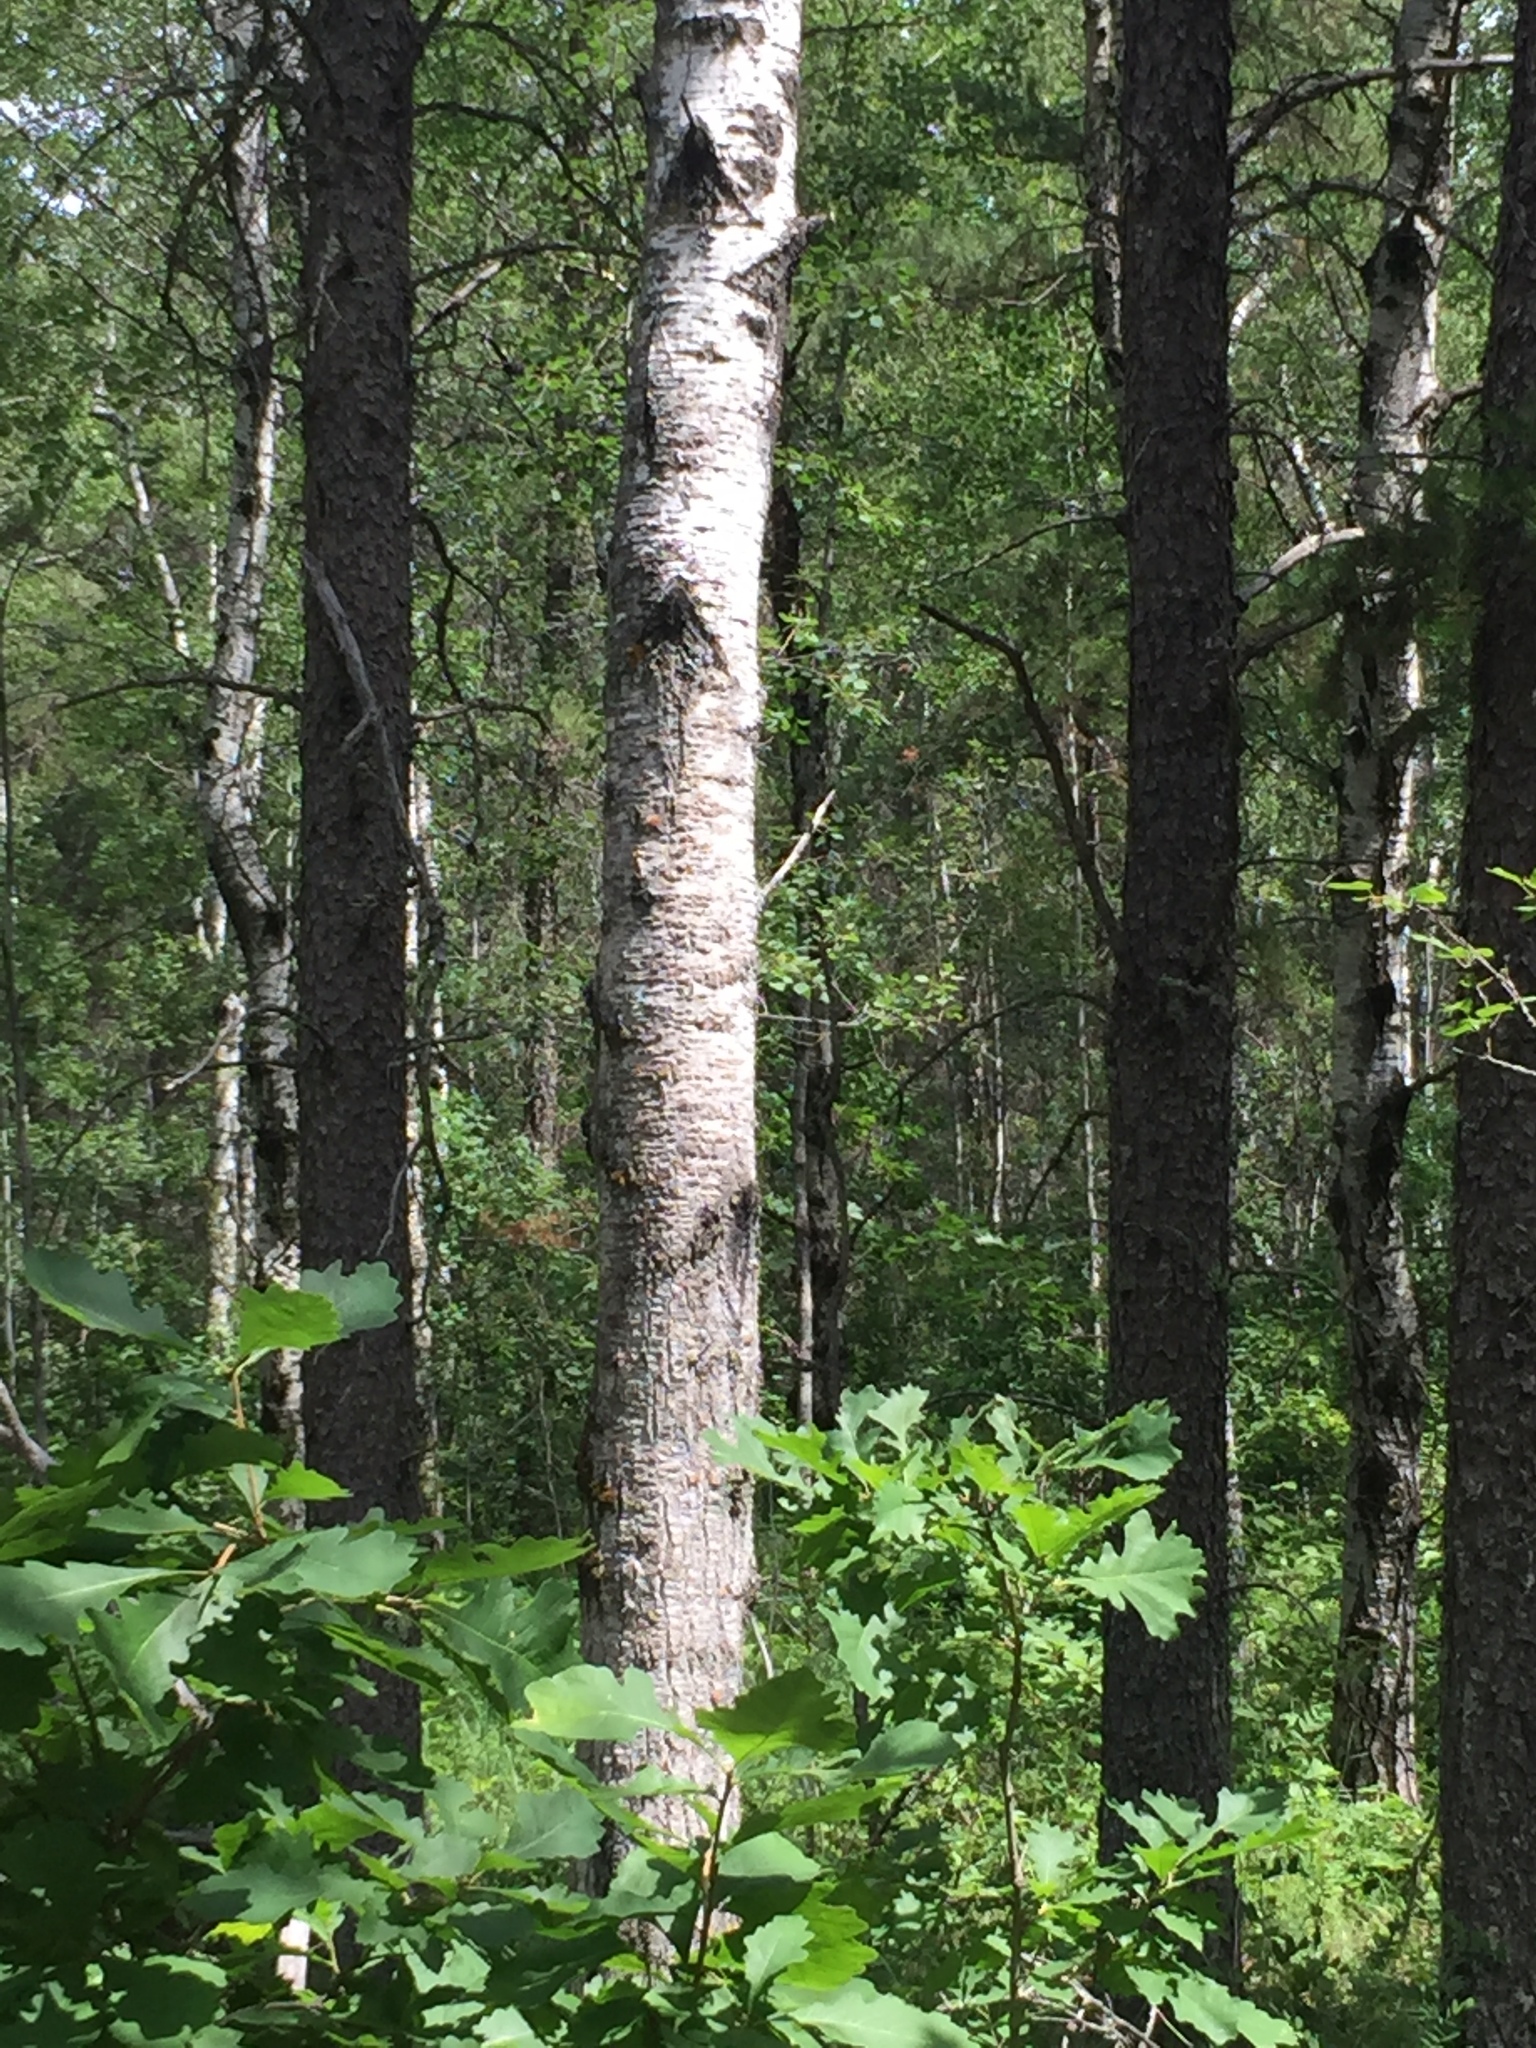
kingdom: Plantae
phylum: Tracheophyta
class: Magnoliopsida
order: Malpighiales
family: Salicaceae
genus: Populus
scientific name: Populus tremuloides
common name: Quaking aspen
